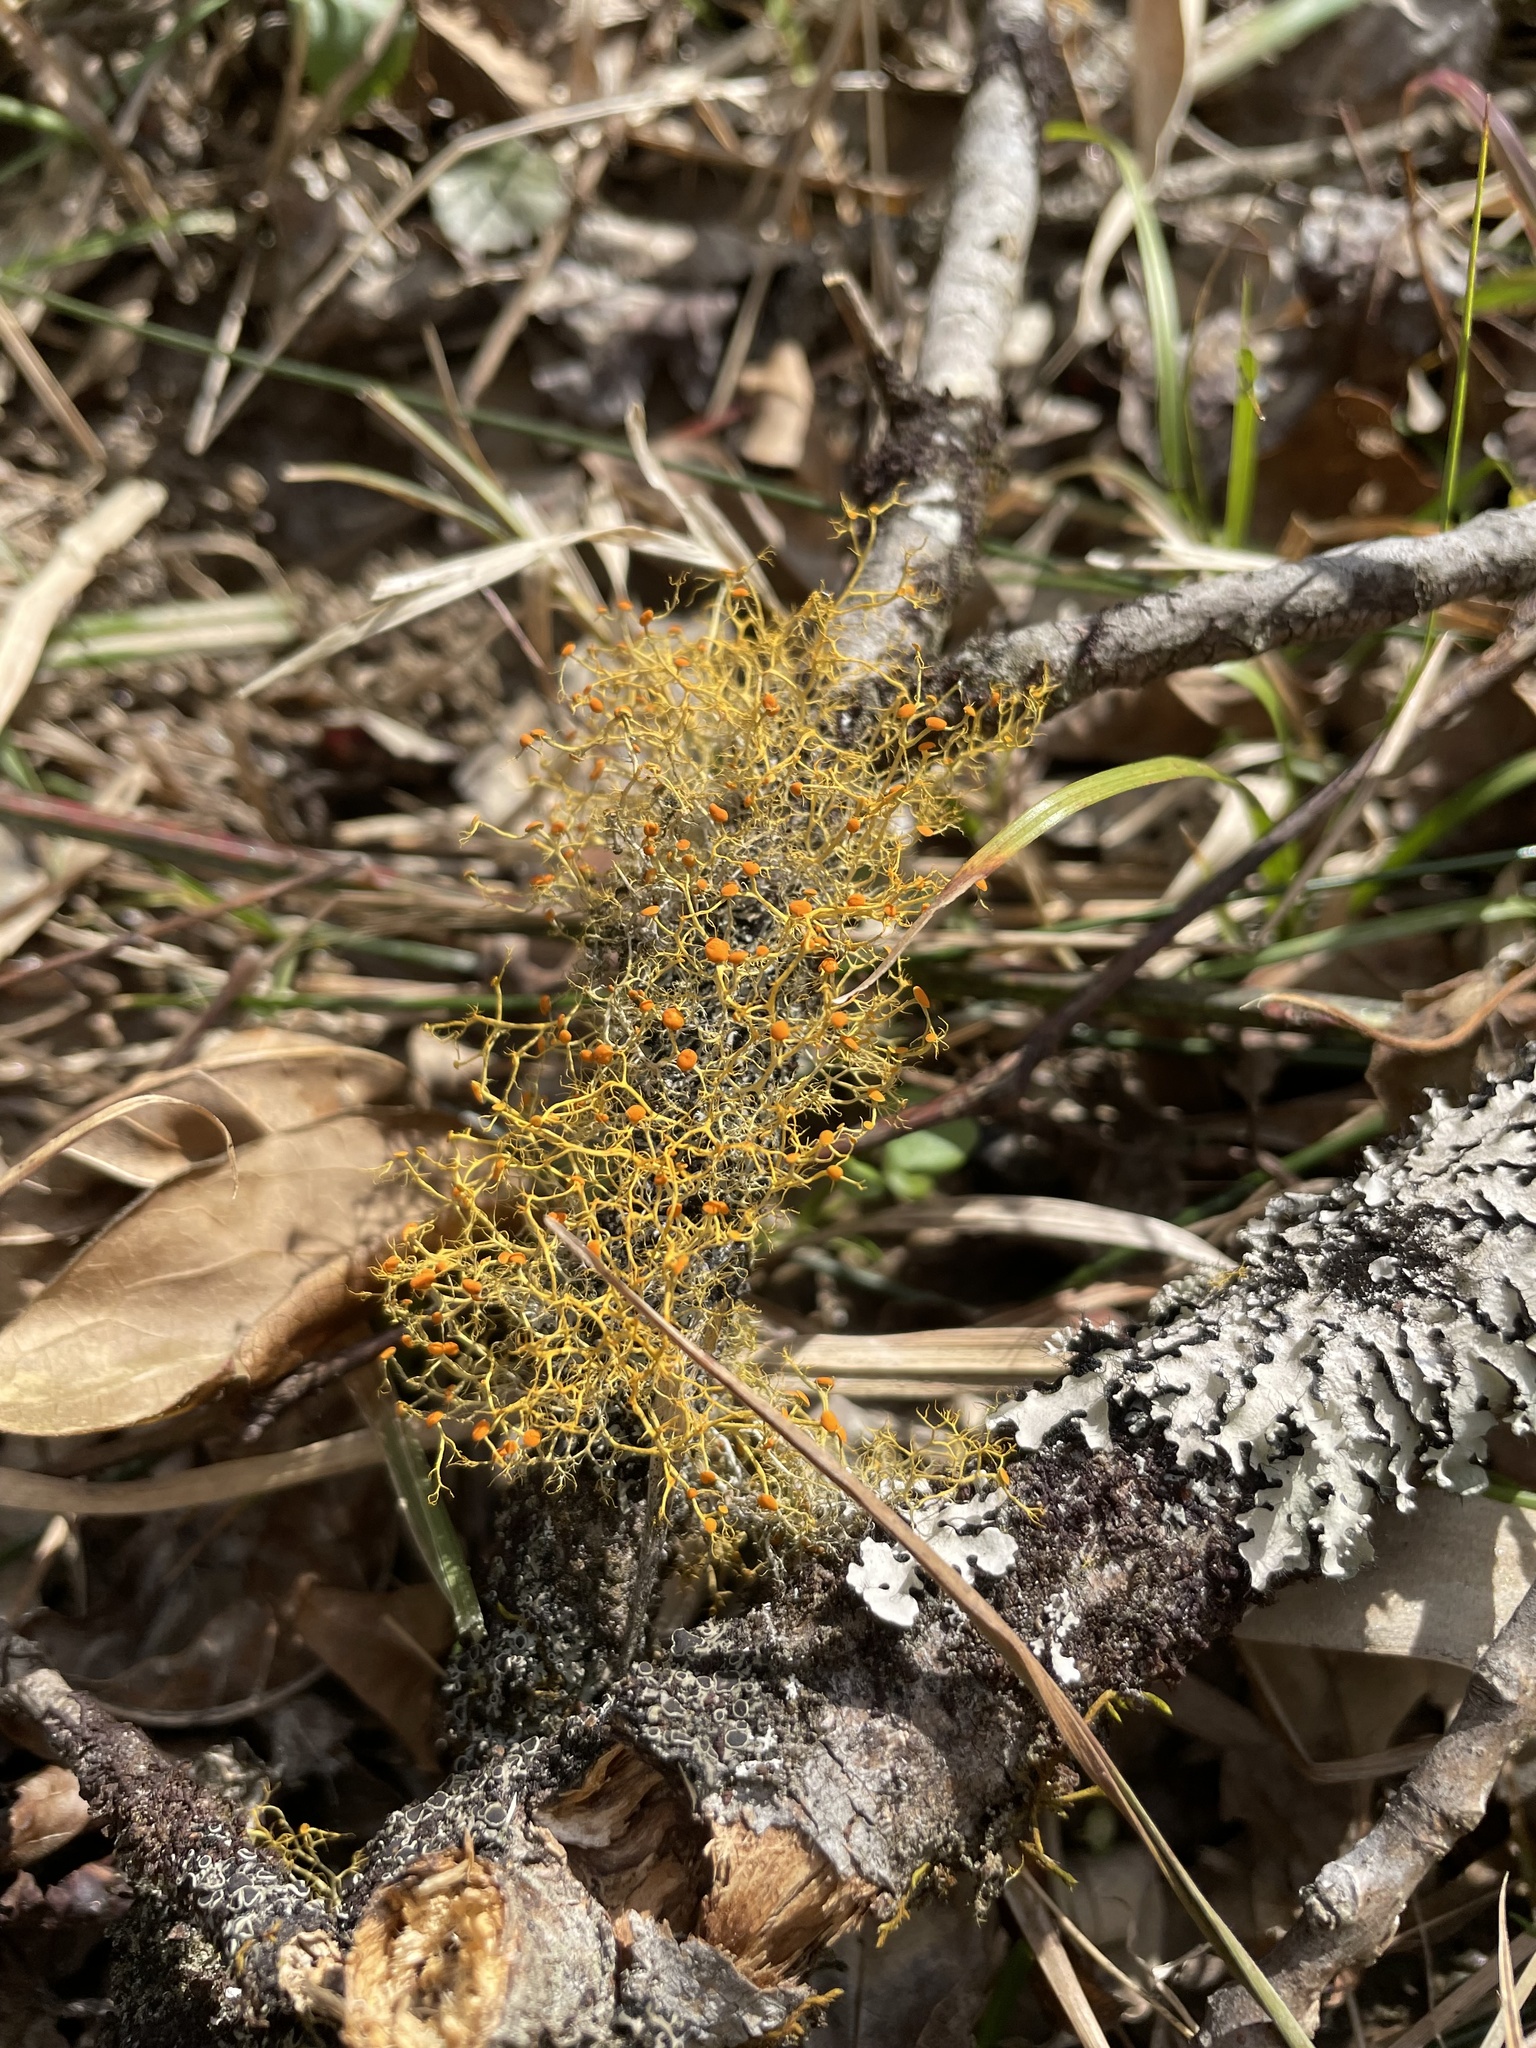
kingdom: Fungi
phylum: Ascomycota
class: Lecanoromycetes
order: Teloschistales
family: Teloschistaceae
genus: Teloschistes
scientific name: Teloschistes exilis
